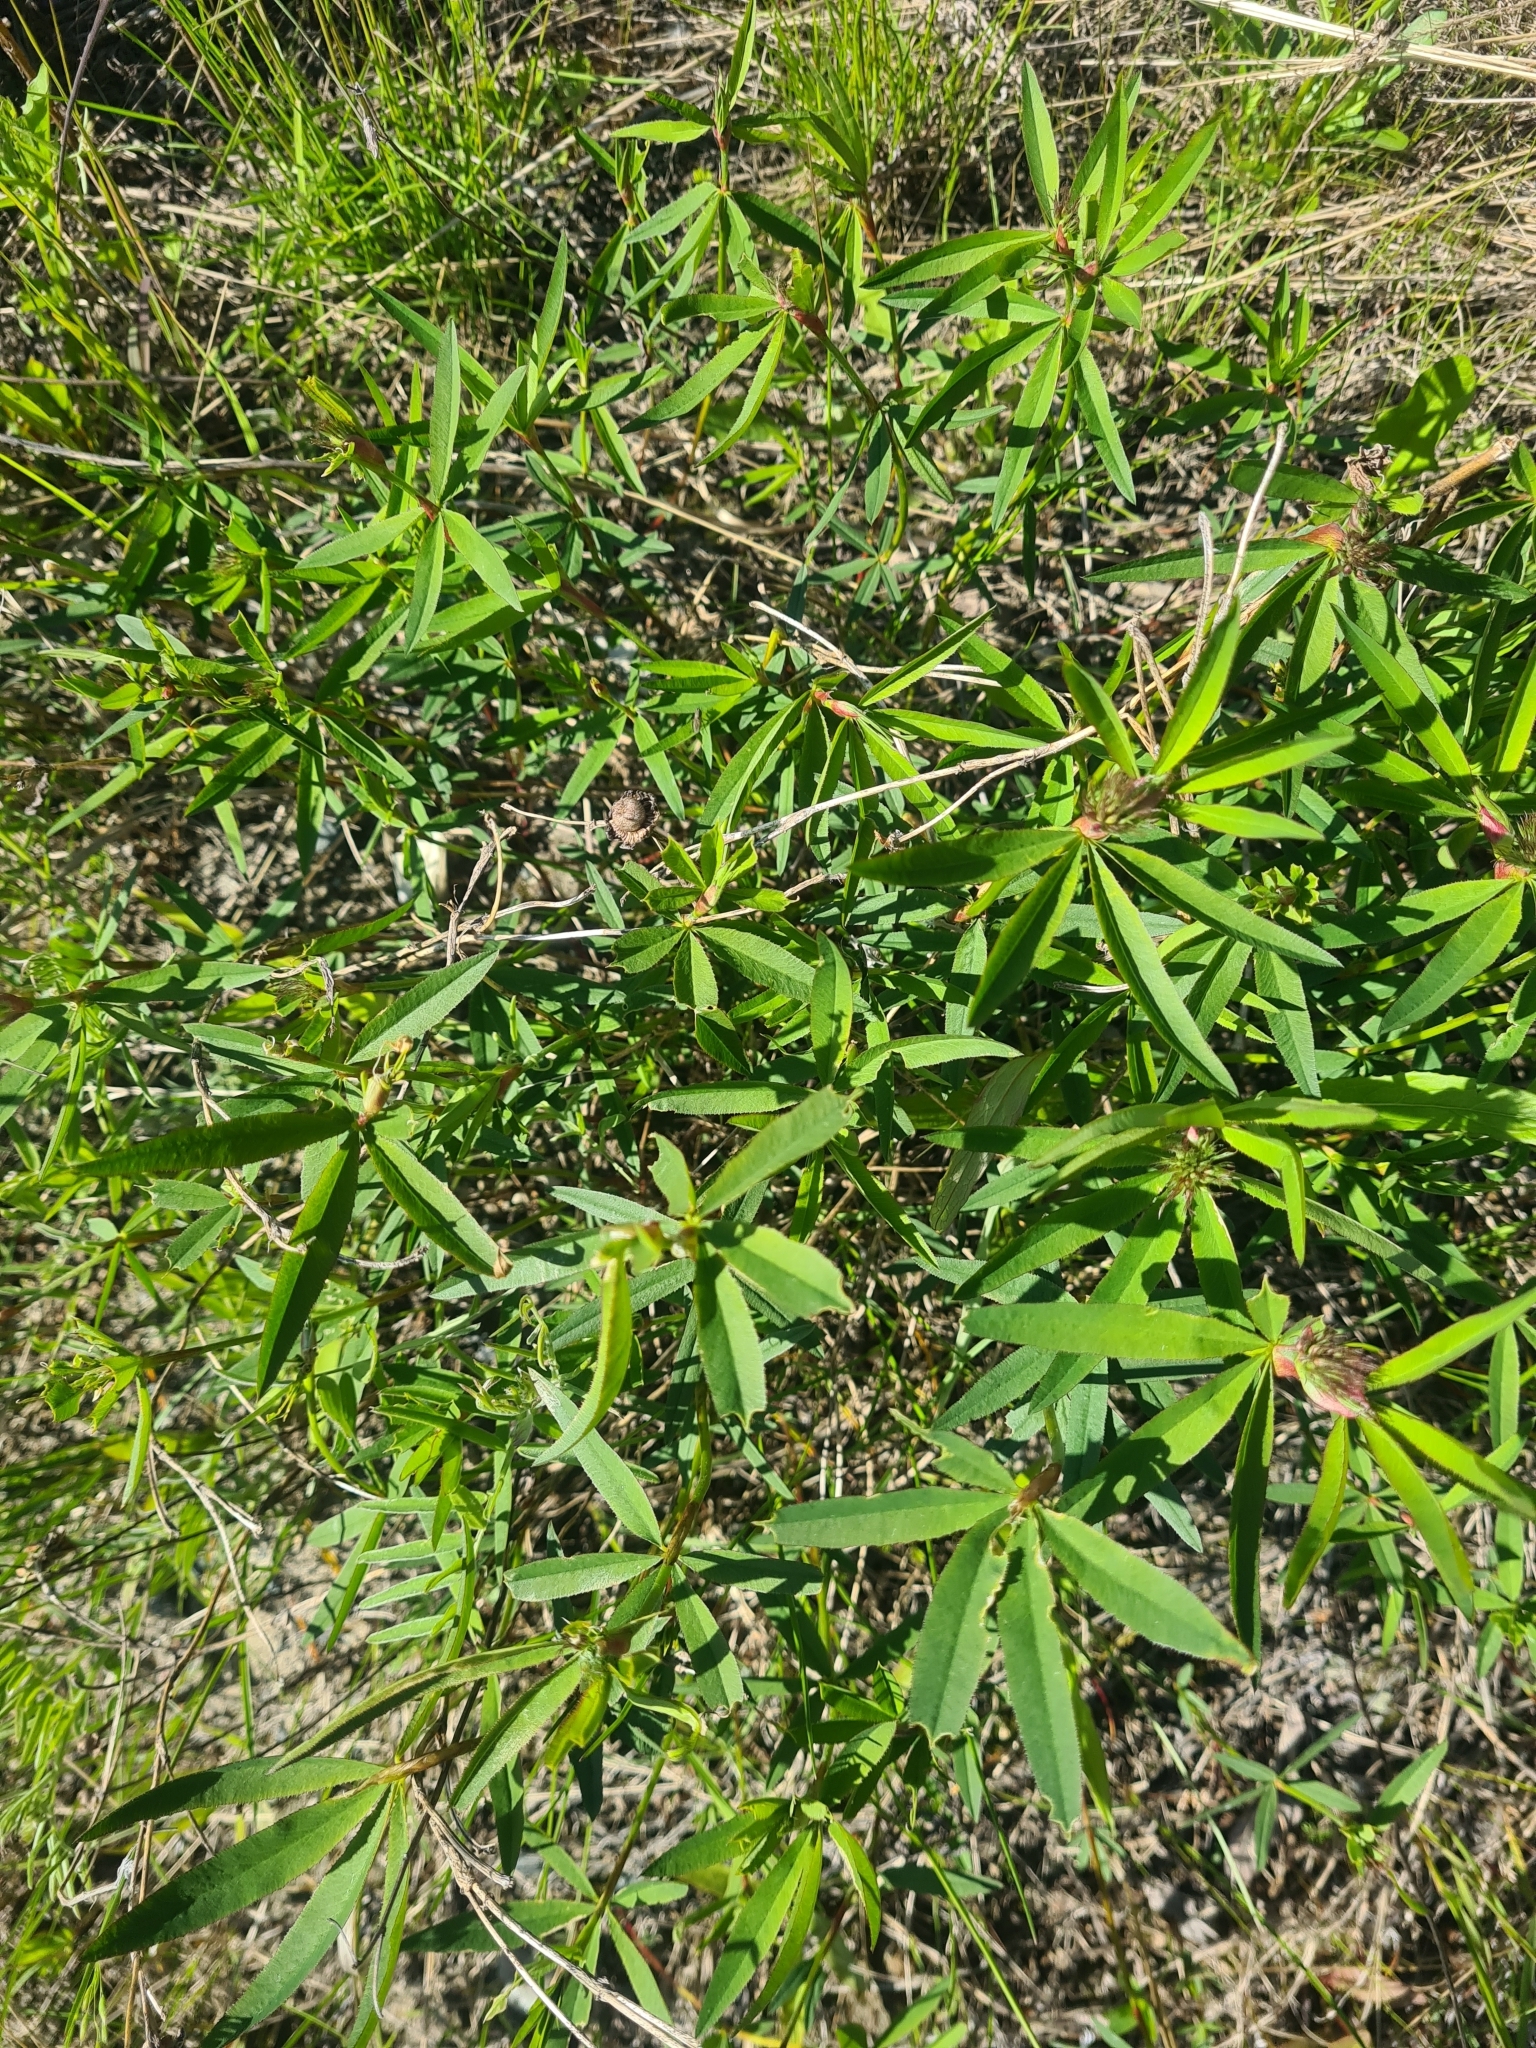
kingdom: Plantae
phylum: Tracheophyta
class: Magnoliopsida
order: Fabales
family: Fabaceae
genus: Trifolium
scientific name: Trifolium lupinaster
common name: Lupine clover
